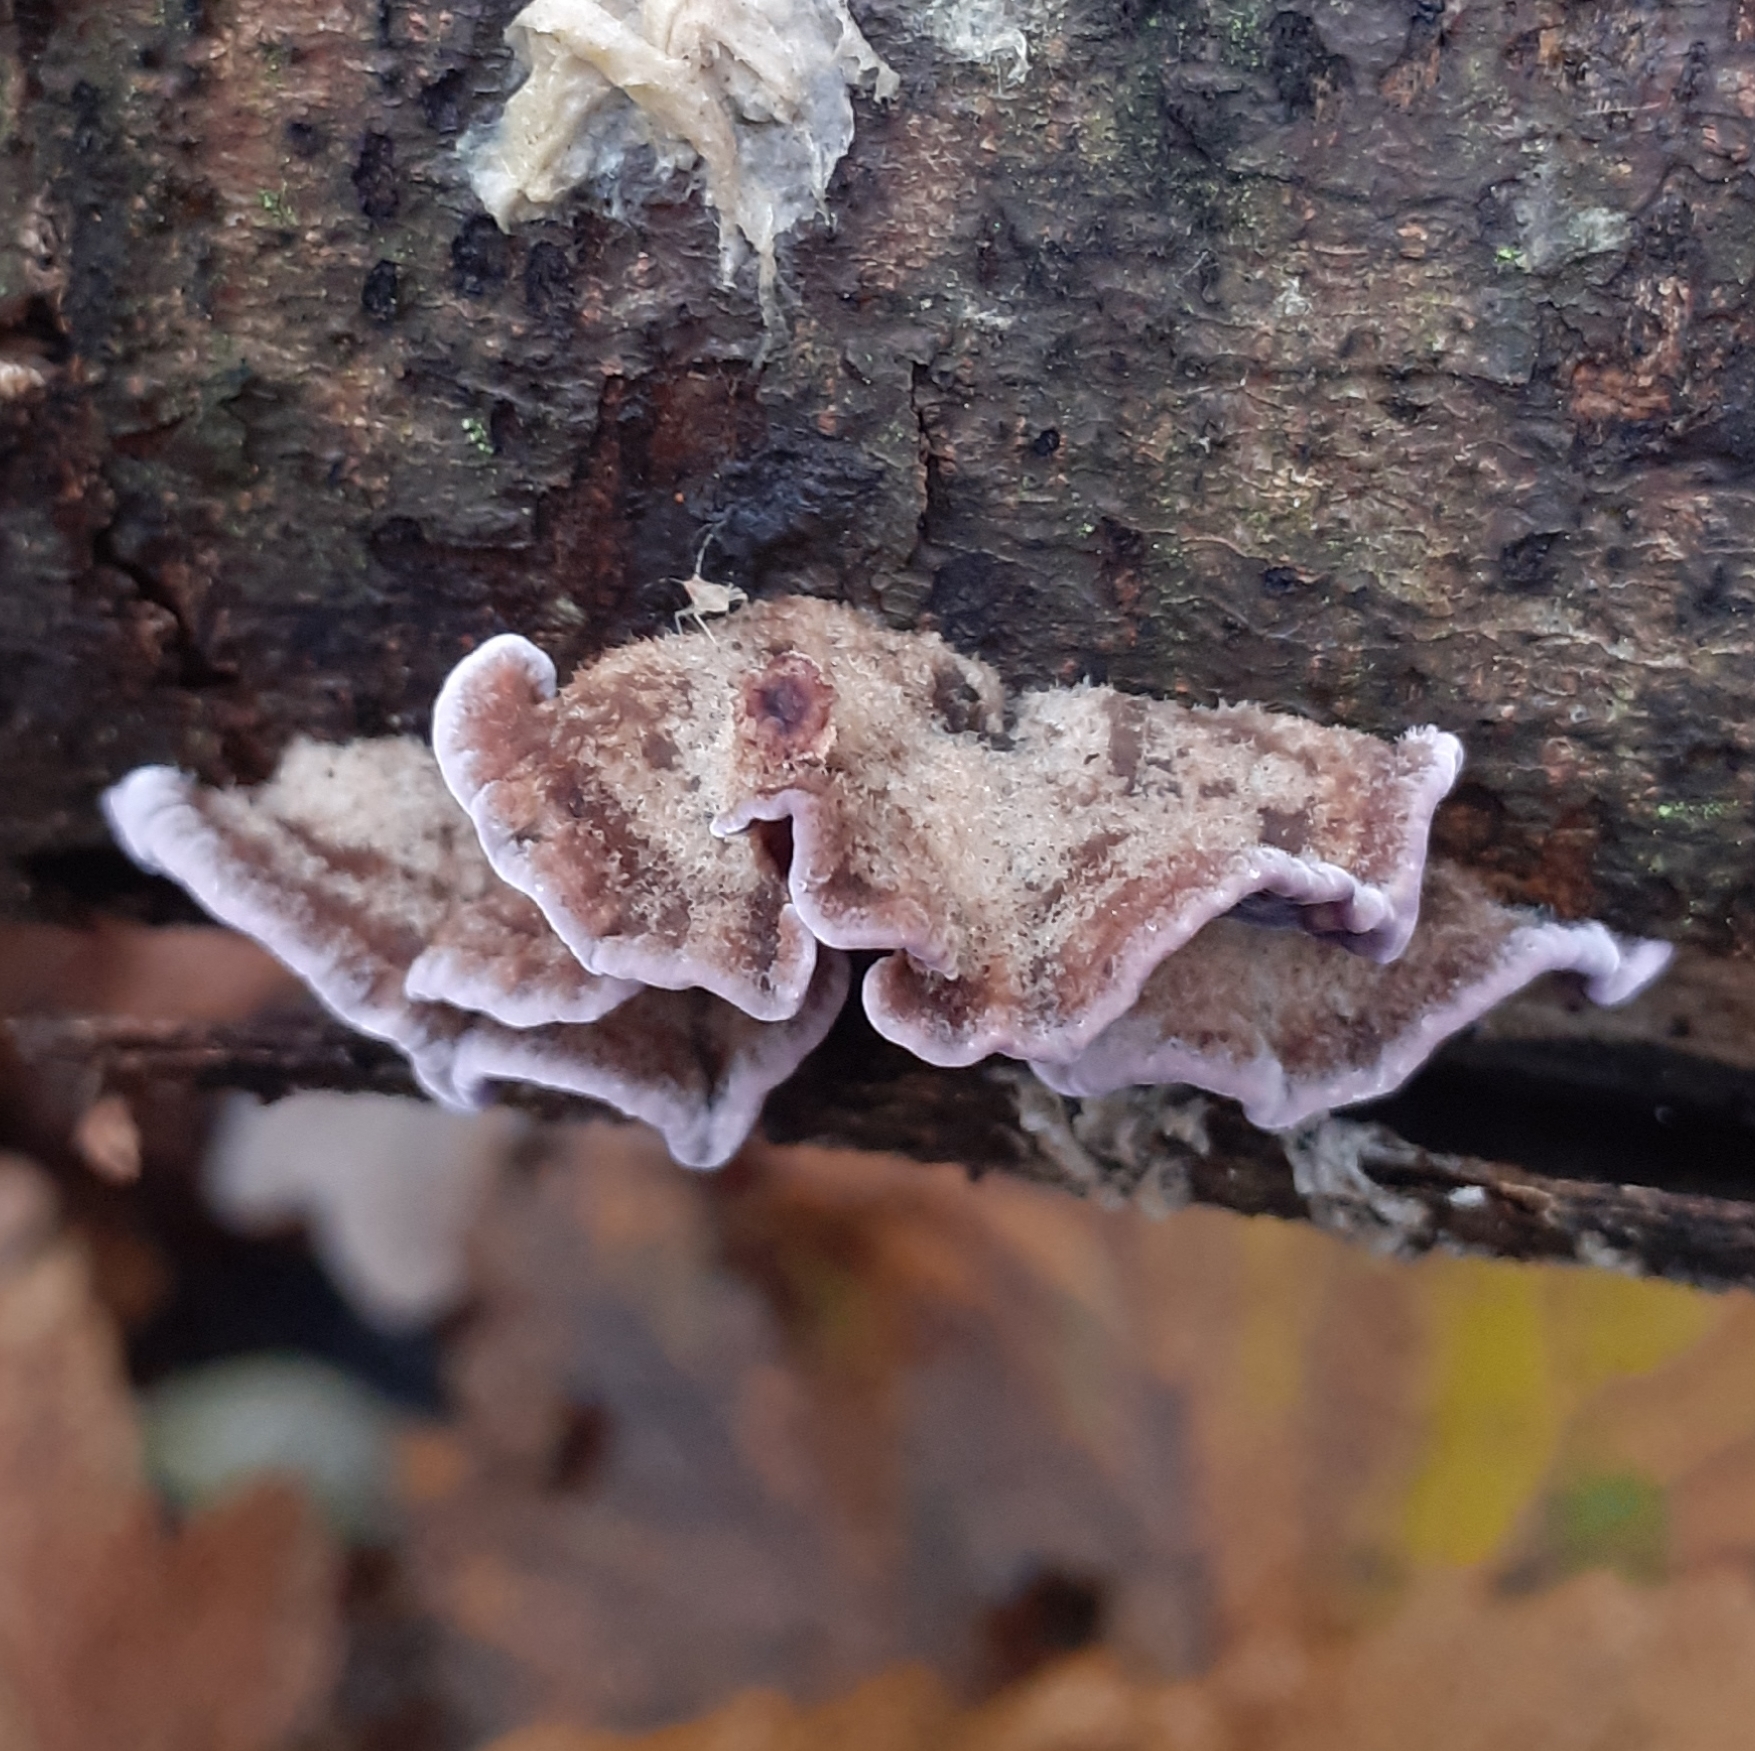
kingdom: Fungi
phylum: Basidiomycota
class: Agaricomycetes
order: Agaricales
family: Cyphellaceae
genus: Chondrostereum
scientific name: Chondrostereum purpureum
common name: Silver leaf disease
